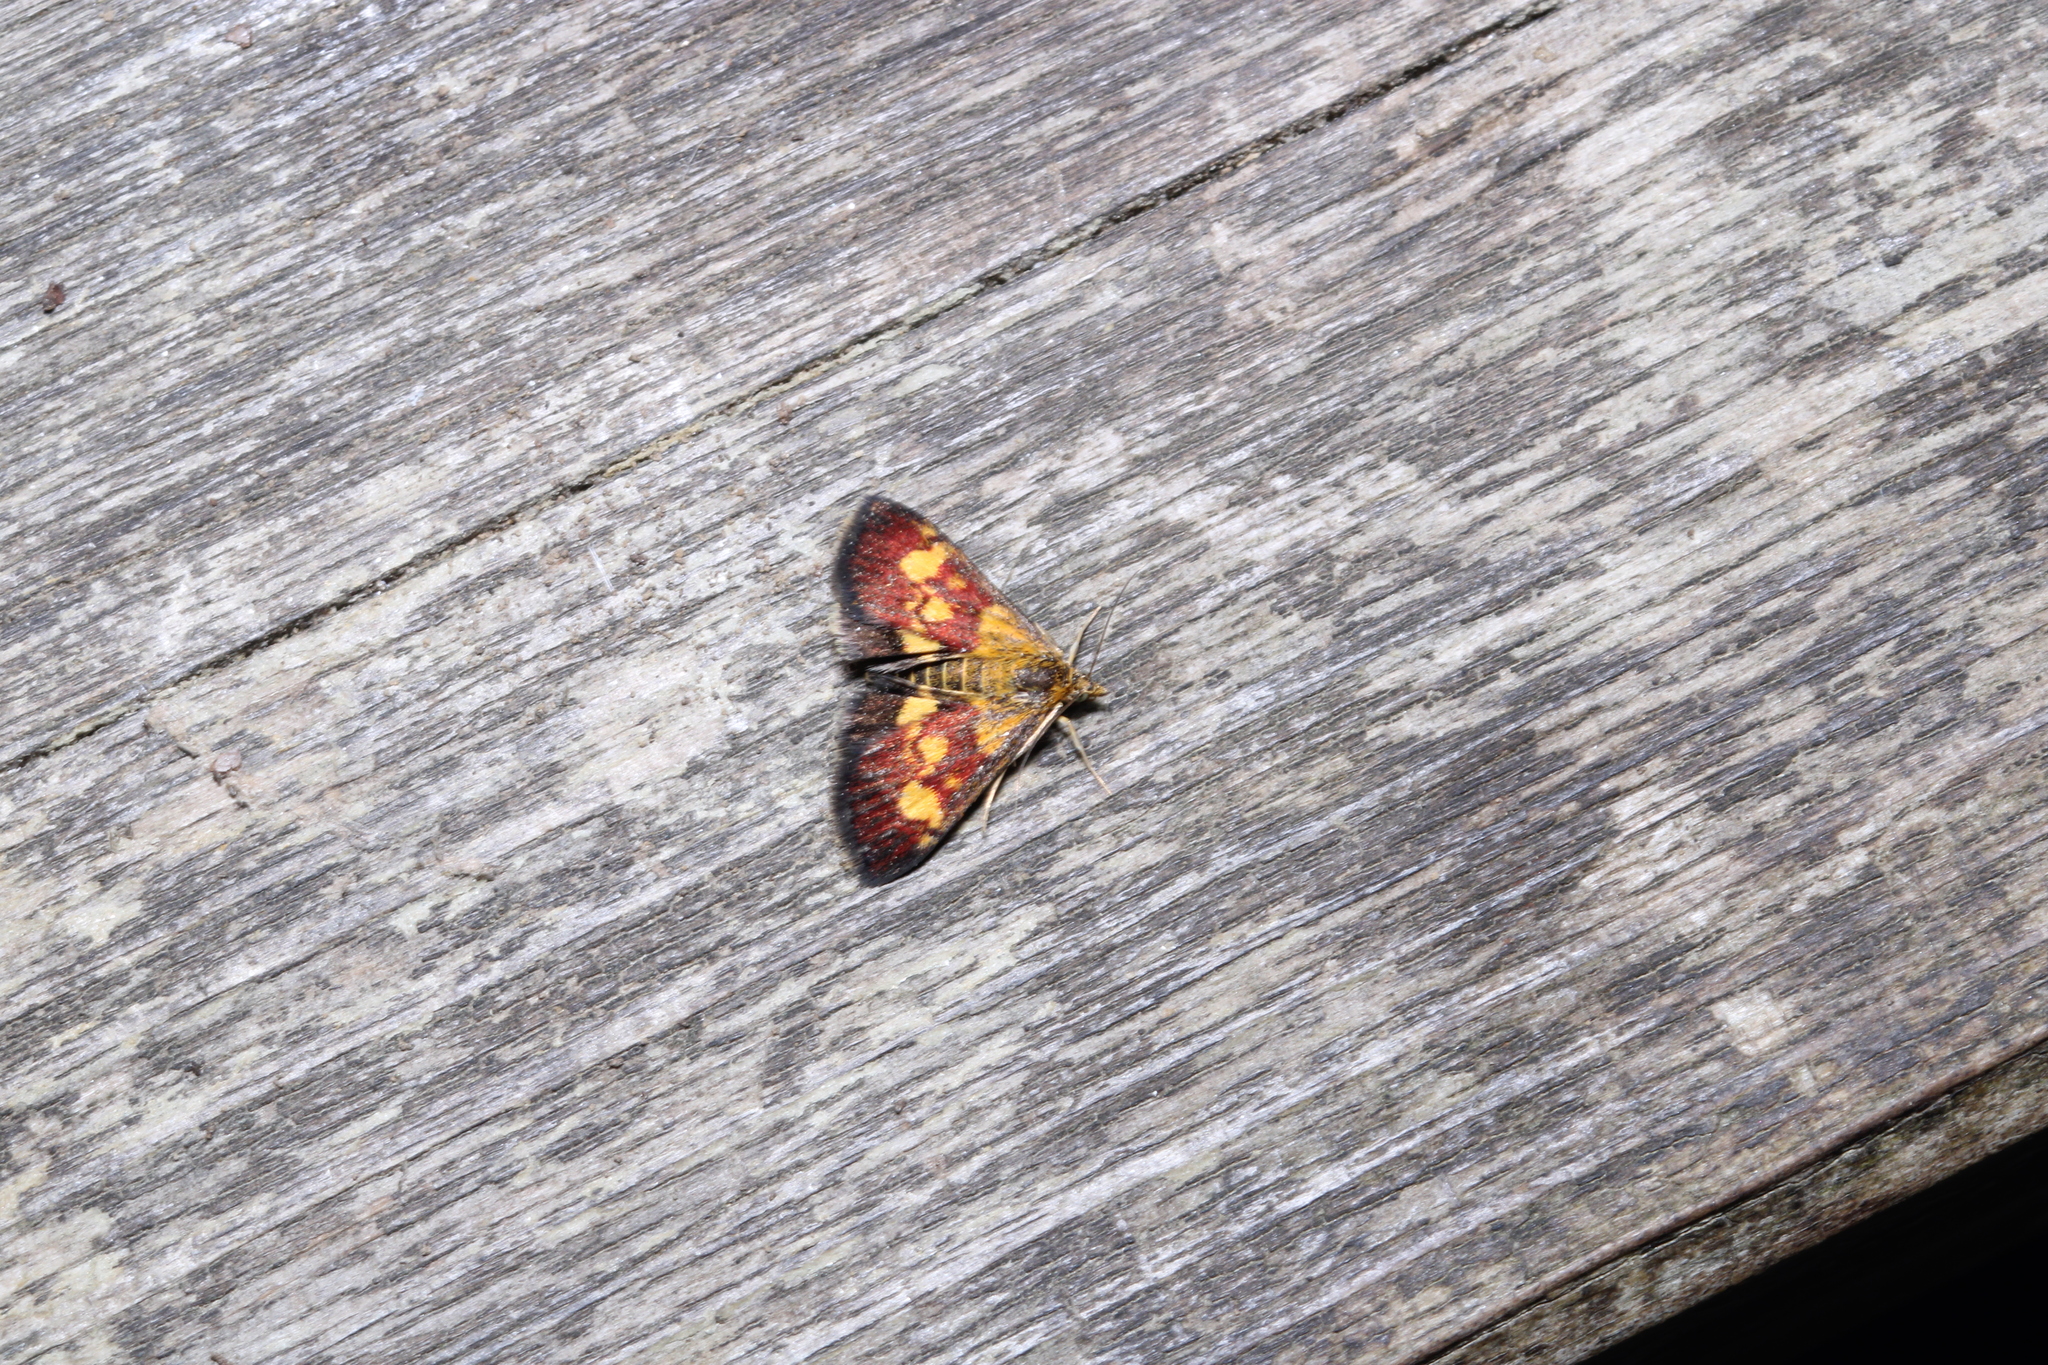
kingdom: Animalia
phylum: Arthropoda
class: Insecta
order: Lepidoptera
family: Crambidae
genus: Pyrausta
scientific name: Pyrausta falcatalis
